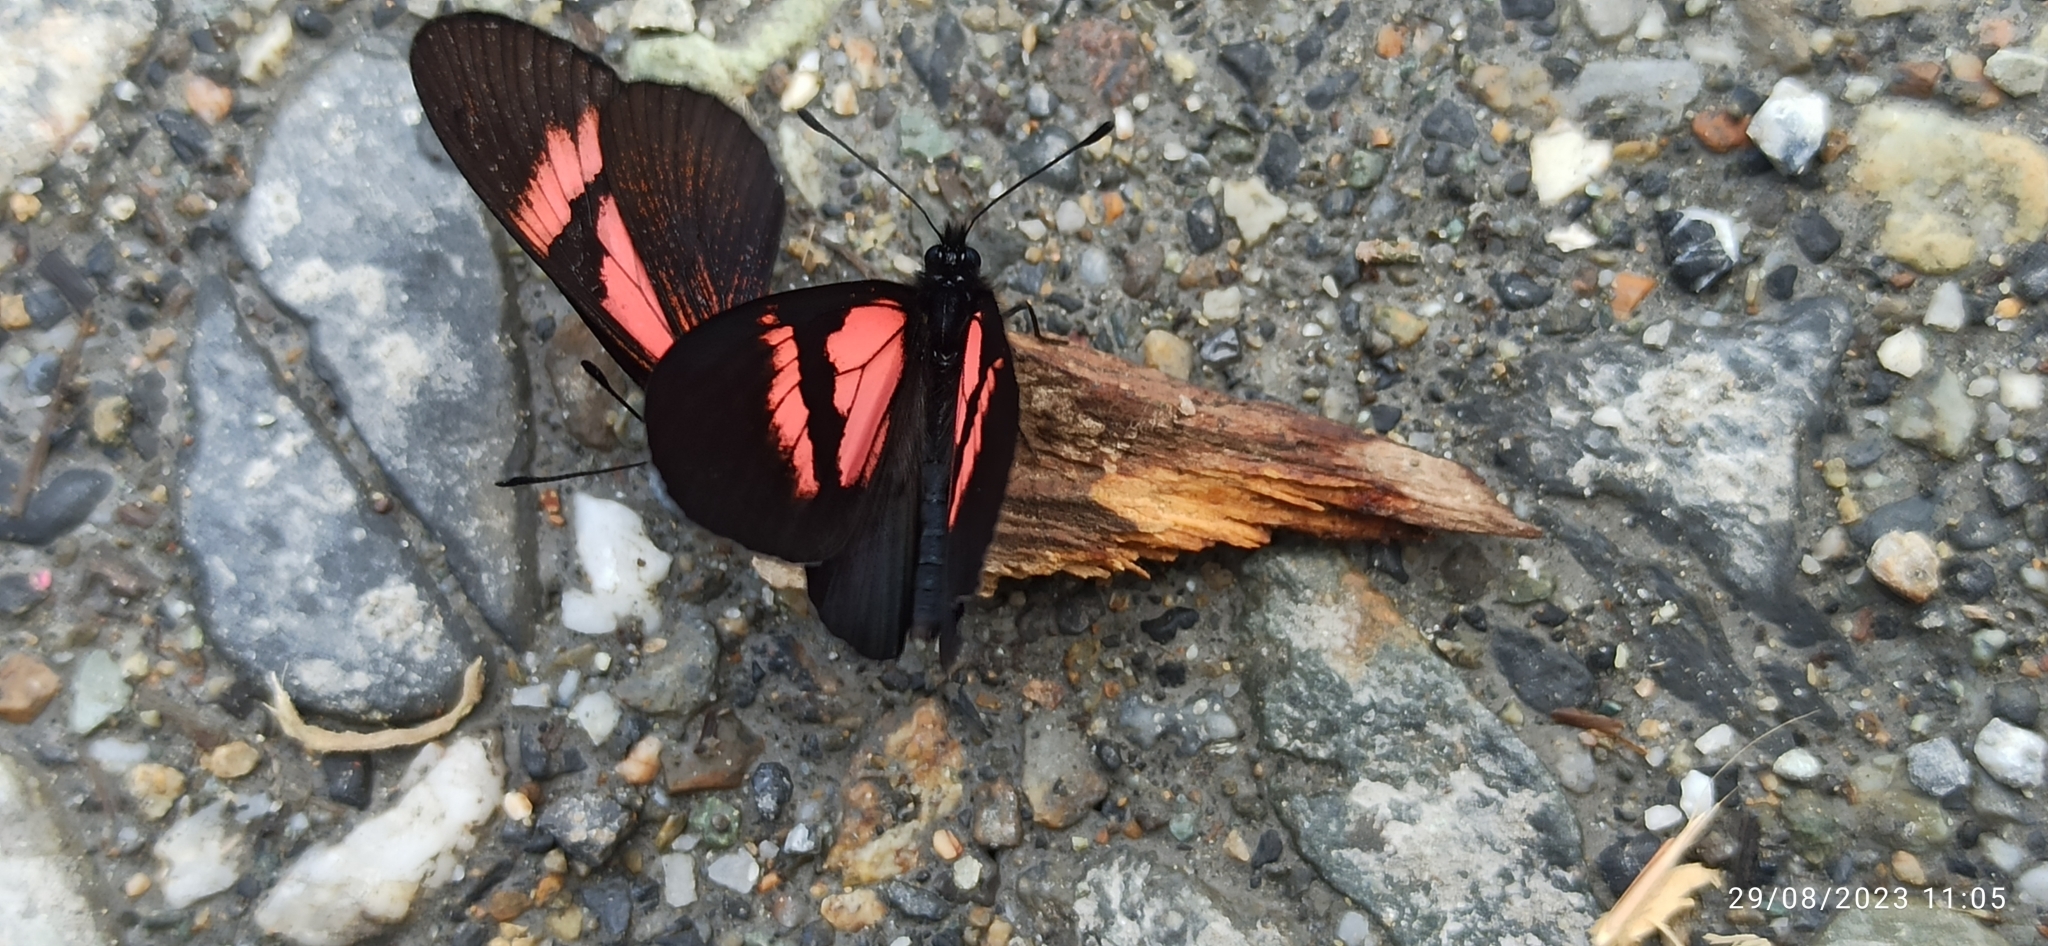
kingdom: Animalia
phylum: Arthropoda
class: Insecta
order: Lepidoptera
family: Nymphalidae
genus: Acraea
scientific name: Acraea Altinote dicaeus
